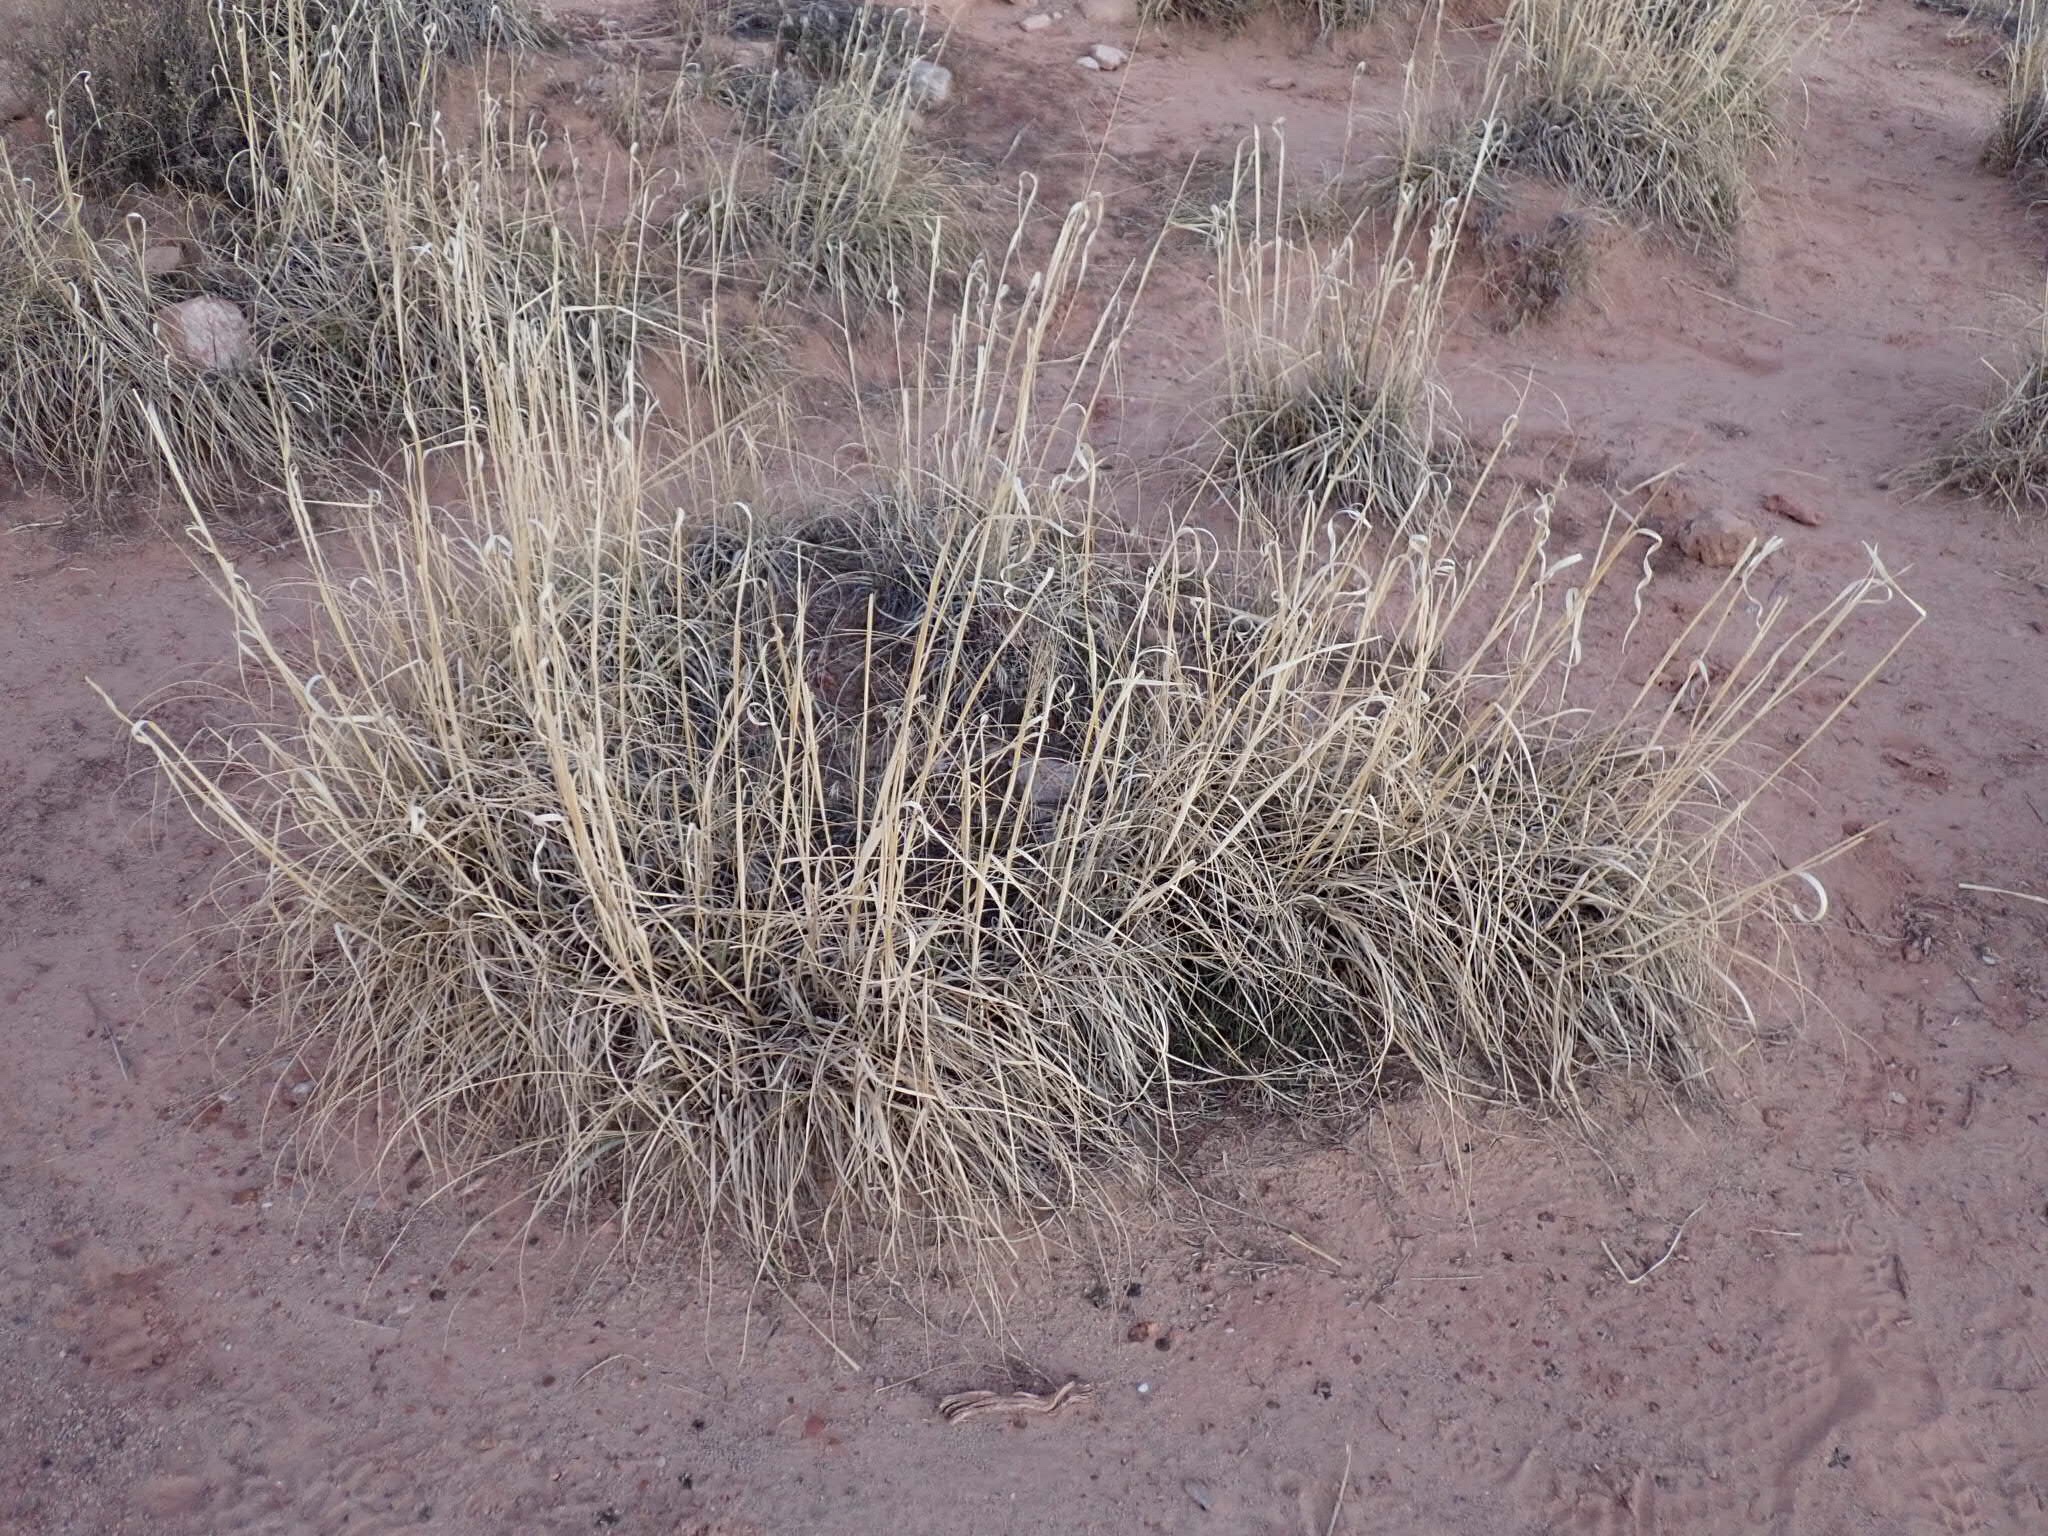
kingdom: Plantae
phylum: Tracheophyta
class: Liliopsida
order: Poales
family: Poaceae
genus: Sporobolus
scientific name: Sporobolus airoides
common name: Alkali sacaton
